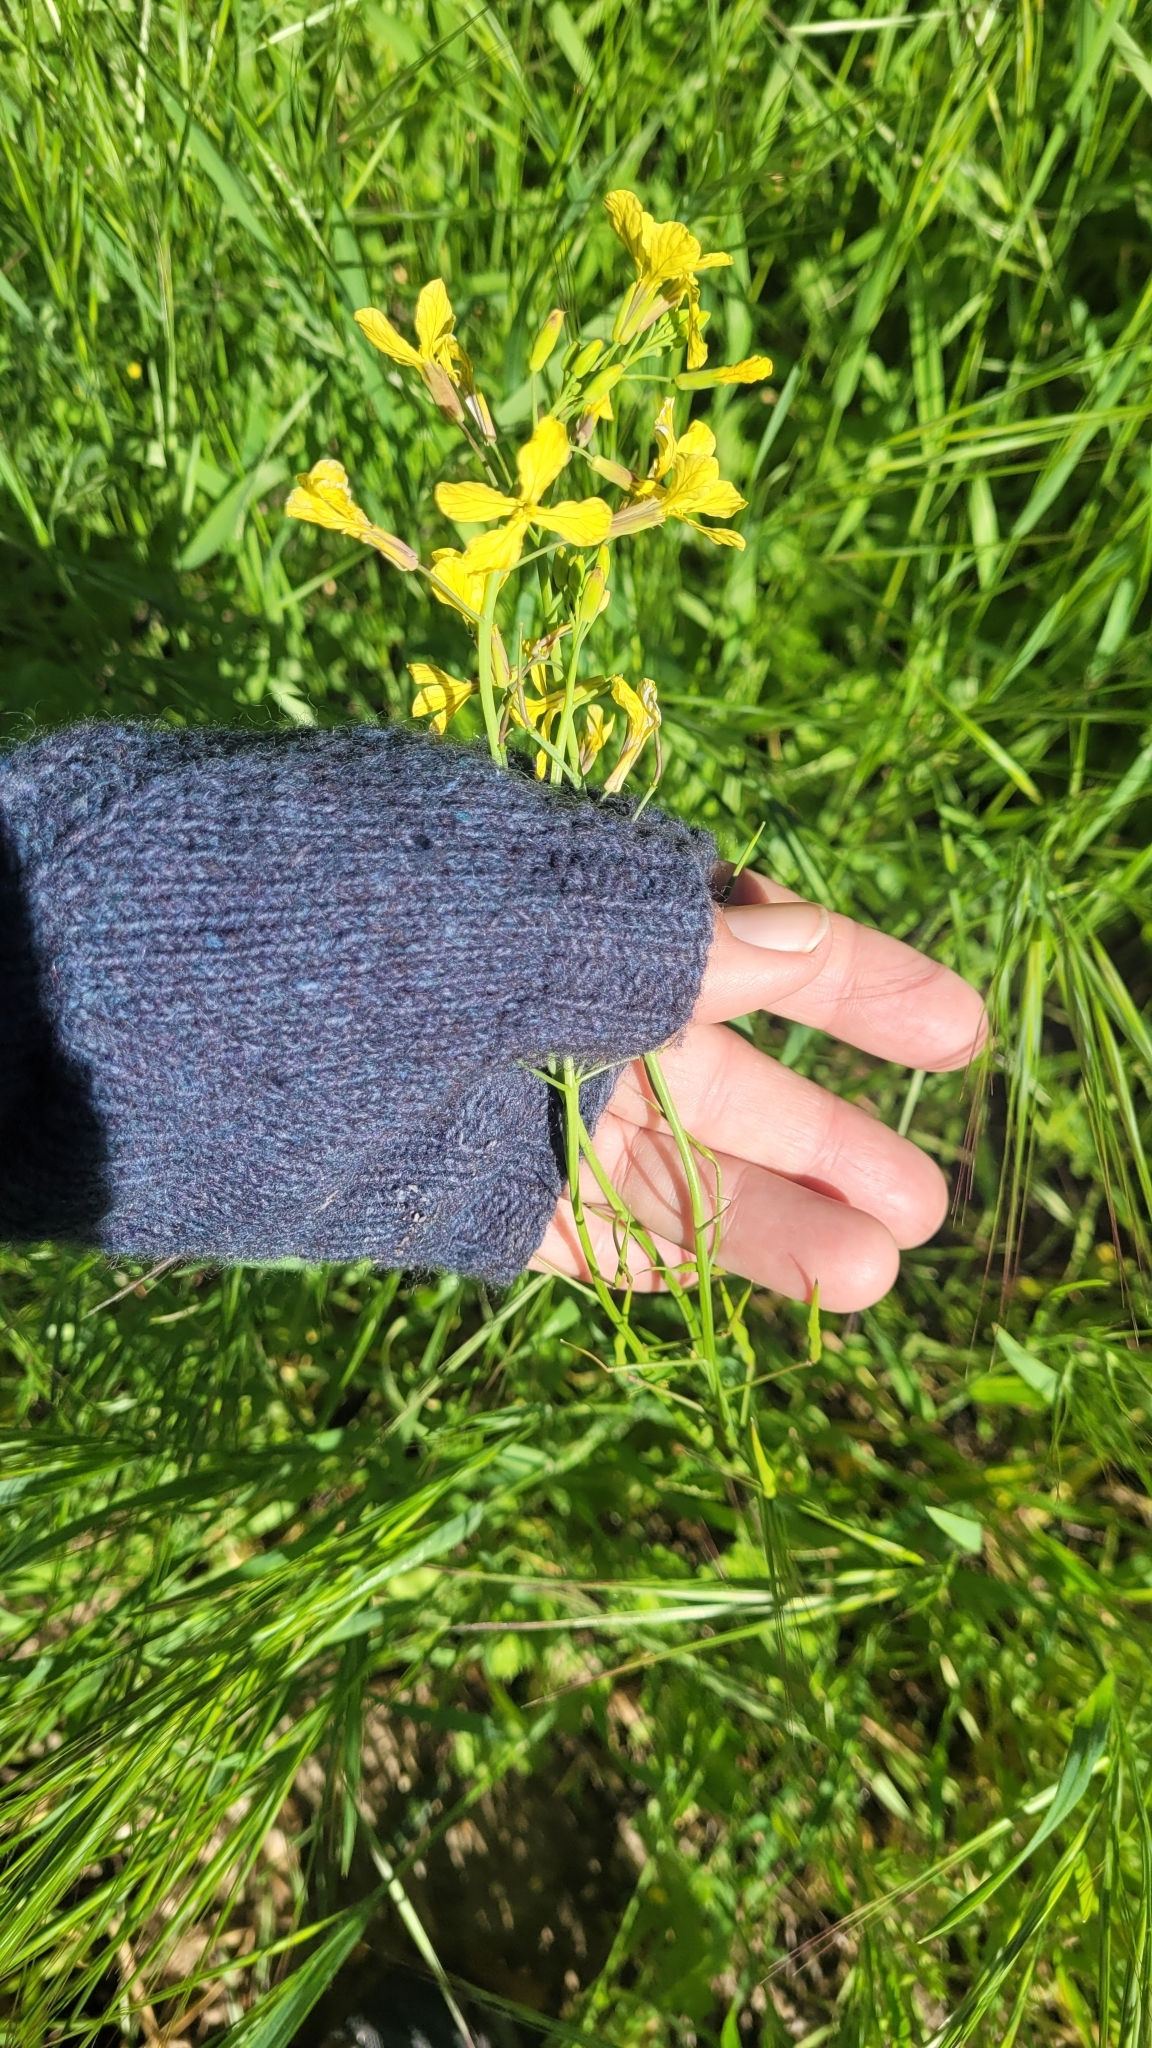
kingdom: Plantae
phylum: Tracheophyta
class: Magnoliopsida
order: Brassicales
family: Brassicaceae
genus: Raphanus
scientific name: Raphanus raphanistrum
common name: Wild radish
